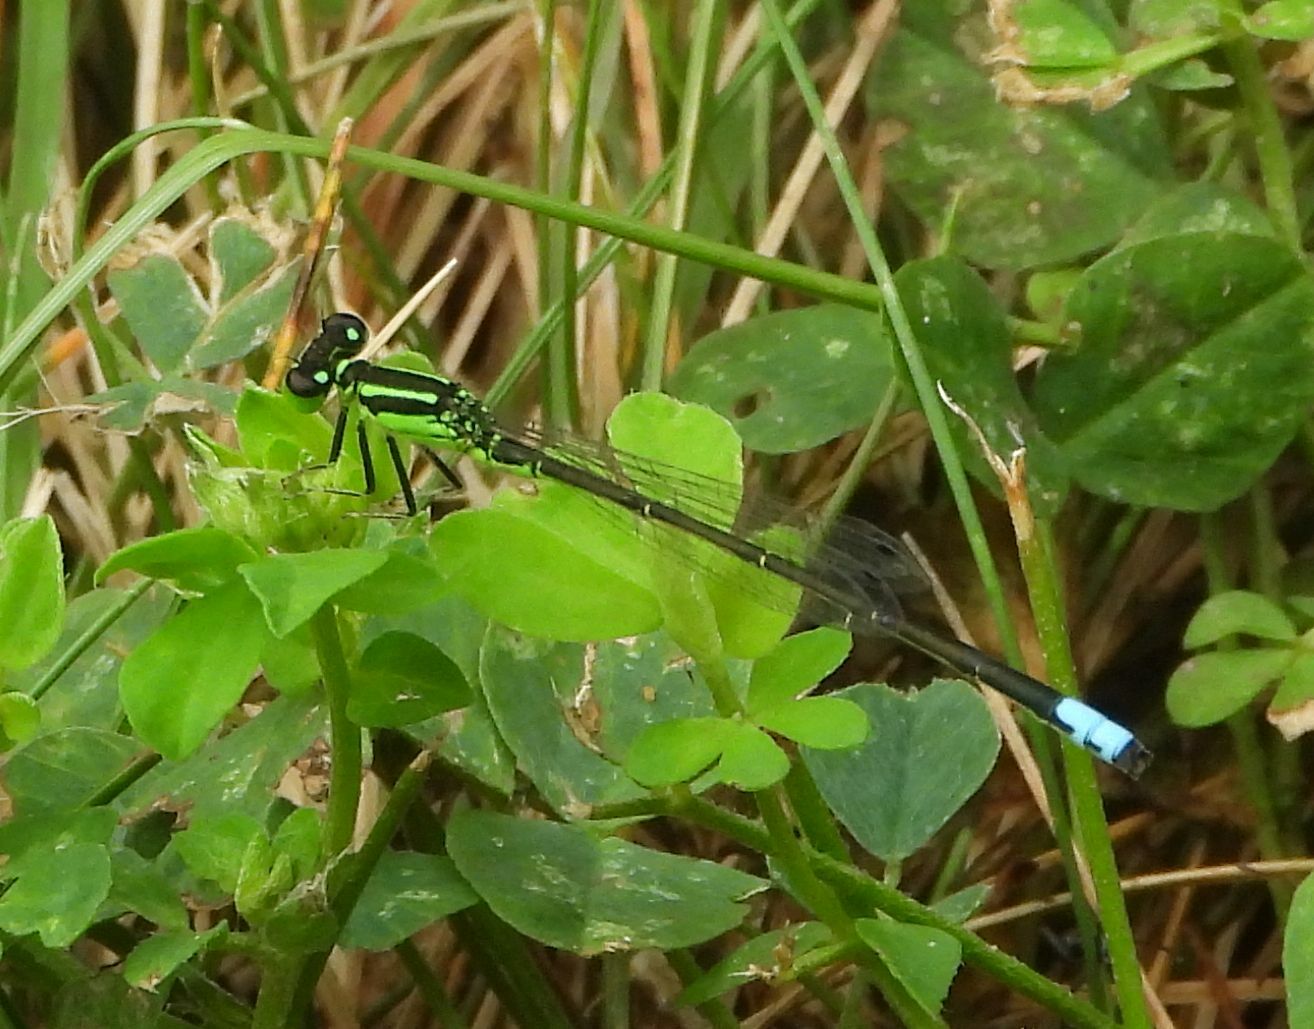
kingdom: Animalia
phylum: Arthropoda
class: Insecta
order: Odonata
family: Coenagrionidae
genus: Ischnura
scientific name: Ischnura verticalis
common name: Eastern forktail
